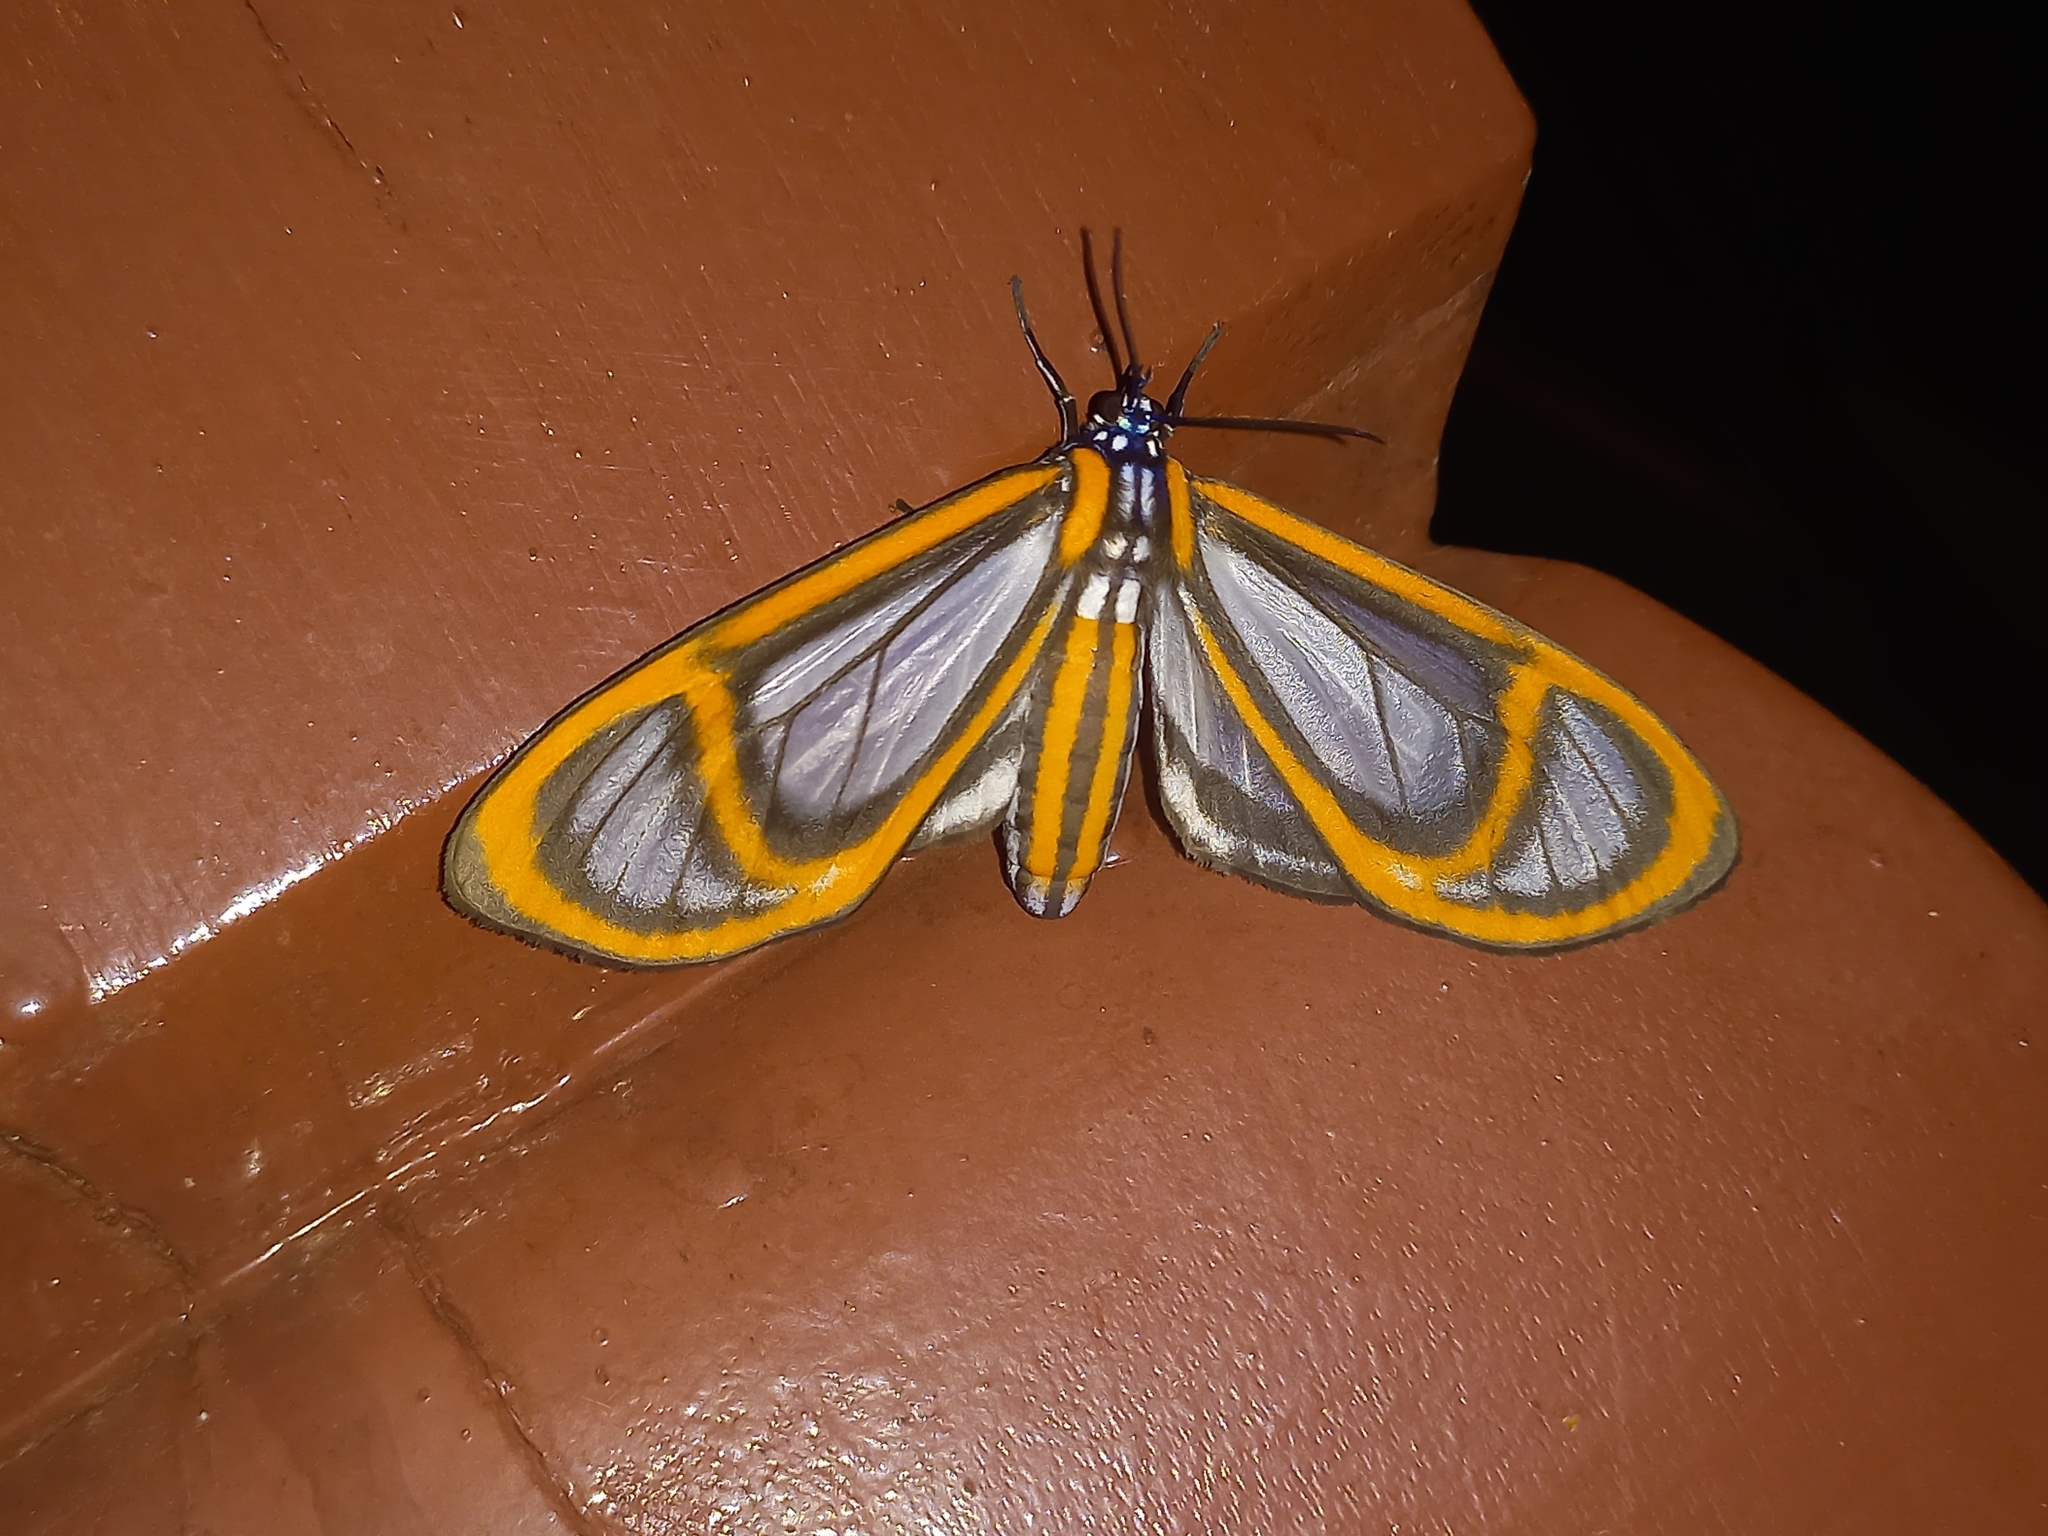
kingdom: Animalia
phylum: Arthropoda
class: Insecta
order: Lepidoptera
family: Erebidae
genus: Hyalurga
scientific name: Hyalurga fenestra
